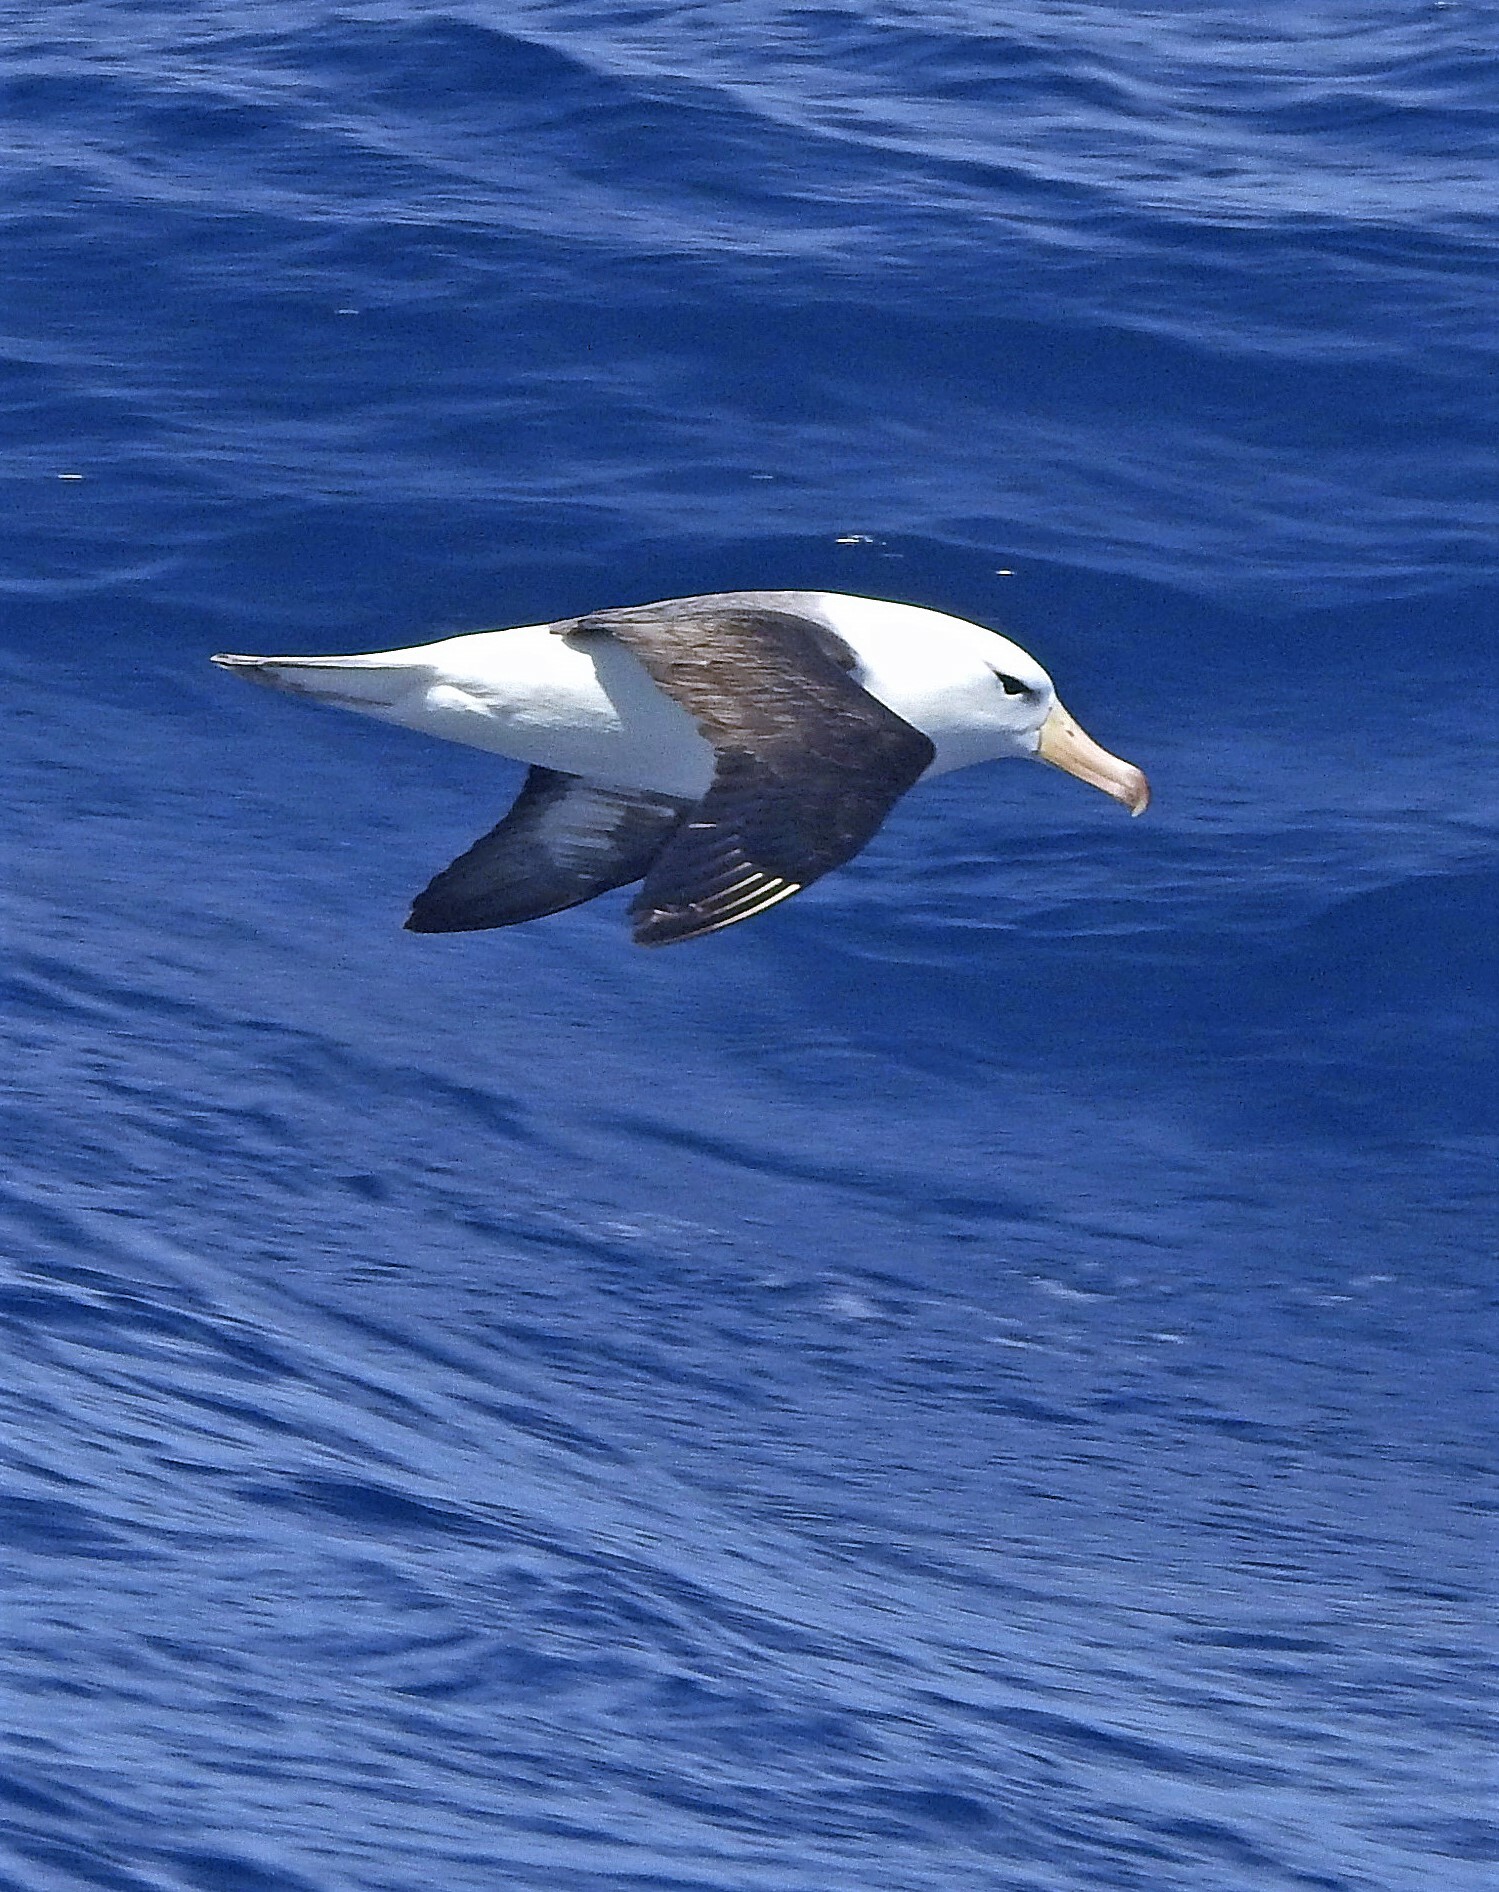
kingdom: Animalia
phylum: Chordata
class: Aves
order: Procellariiformes
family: Diomedeidae
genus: Thalassarche
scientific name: Thalassarche melanophris
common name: Black-browed albatross
